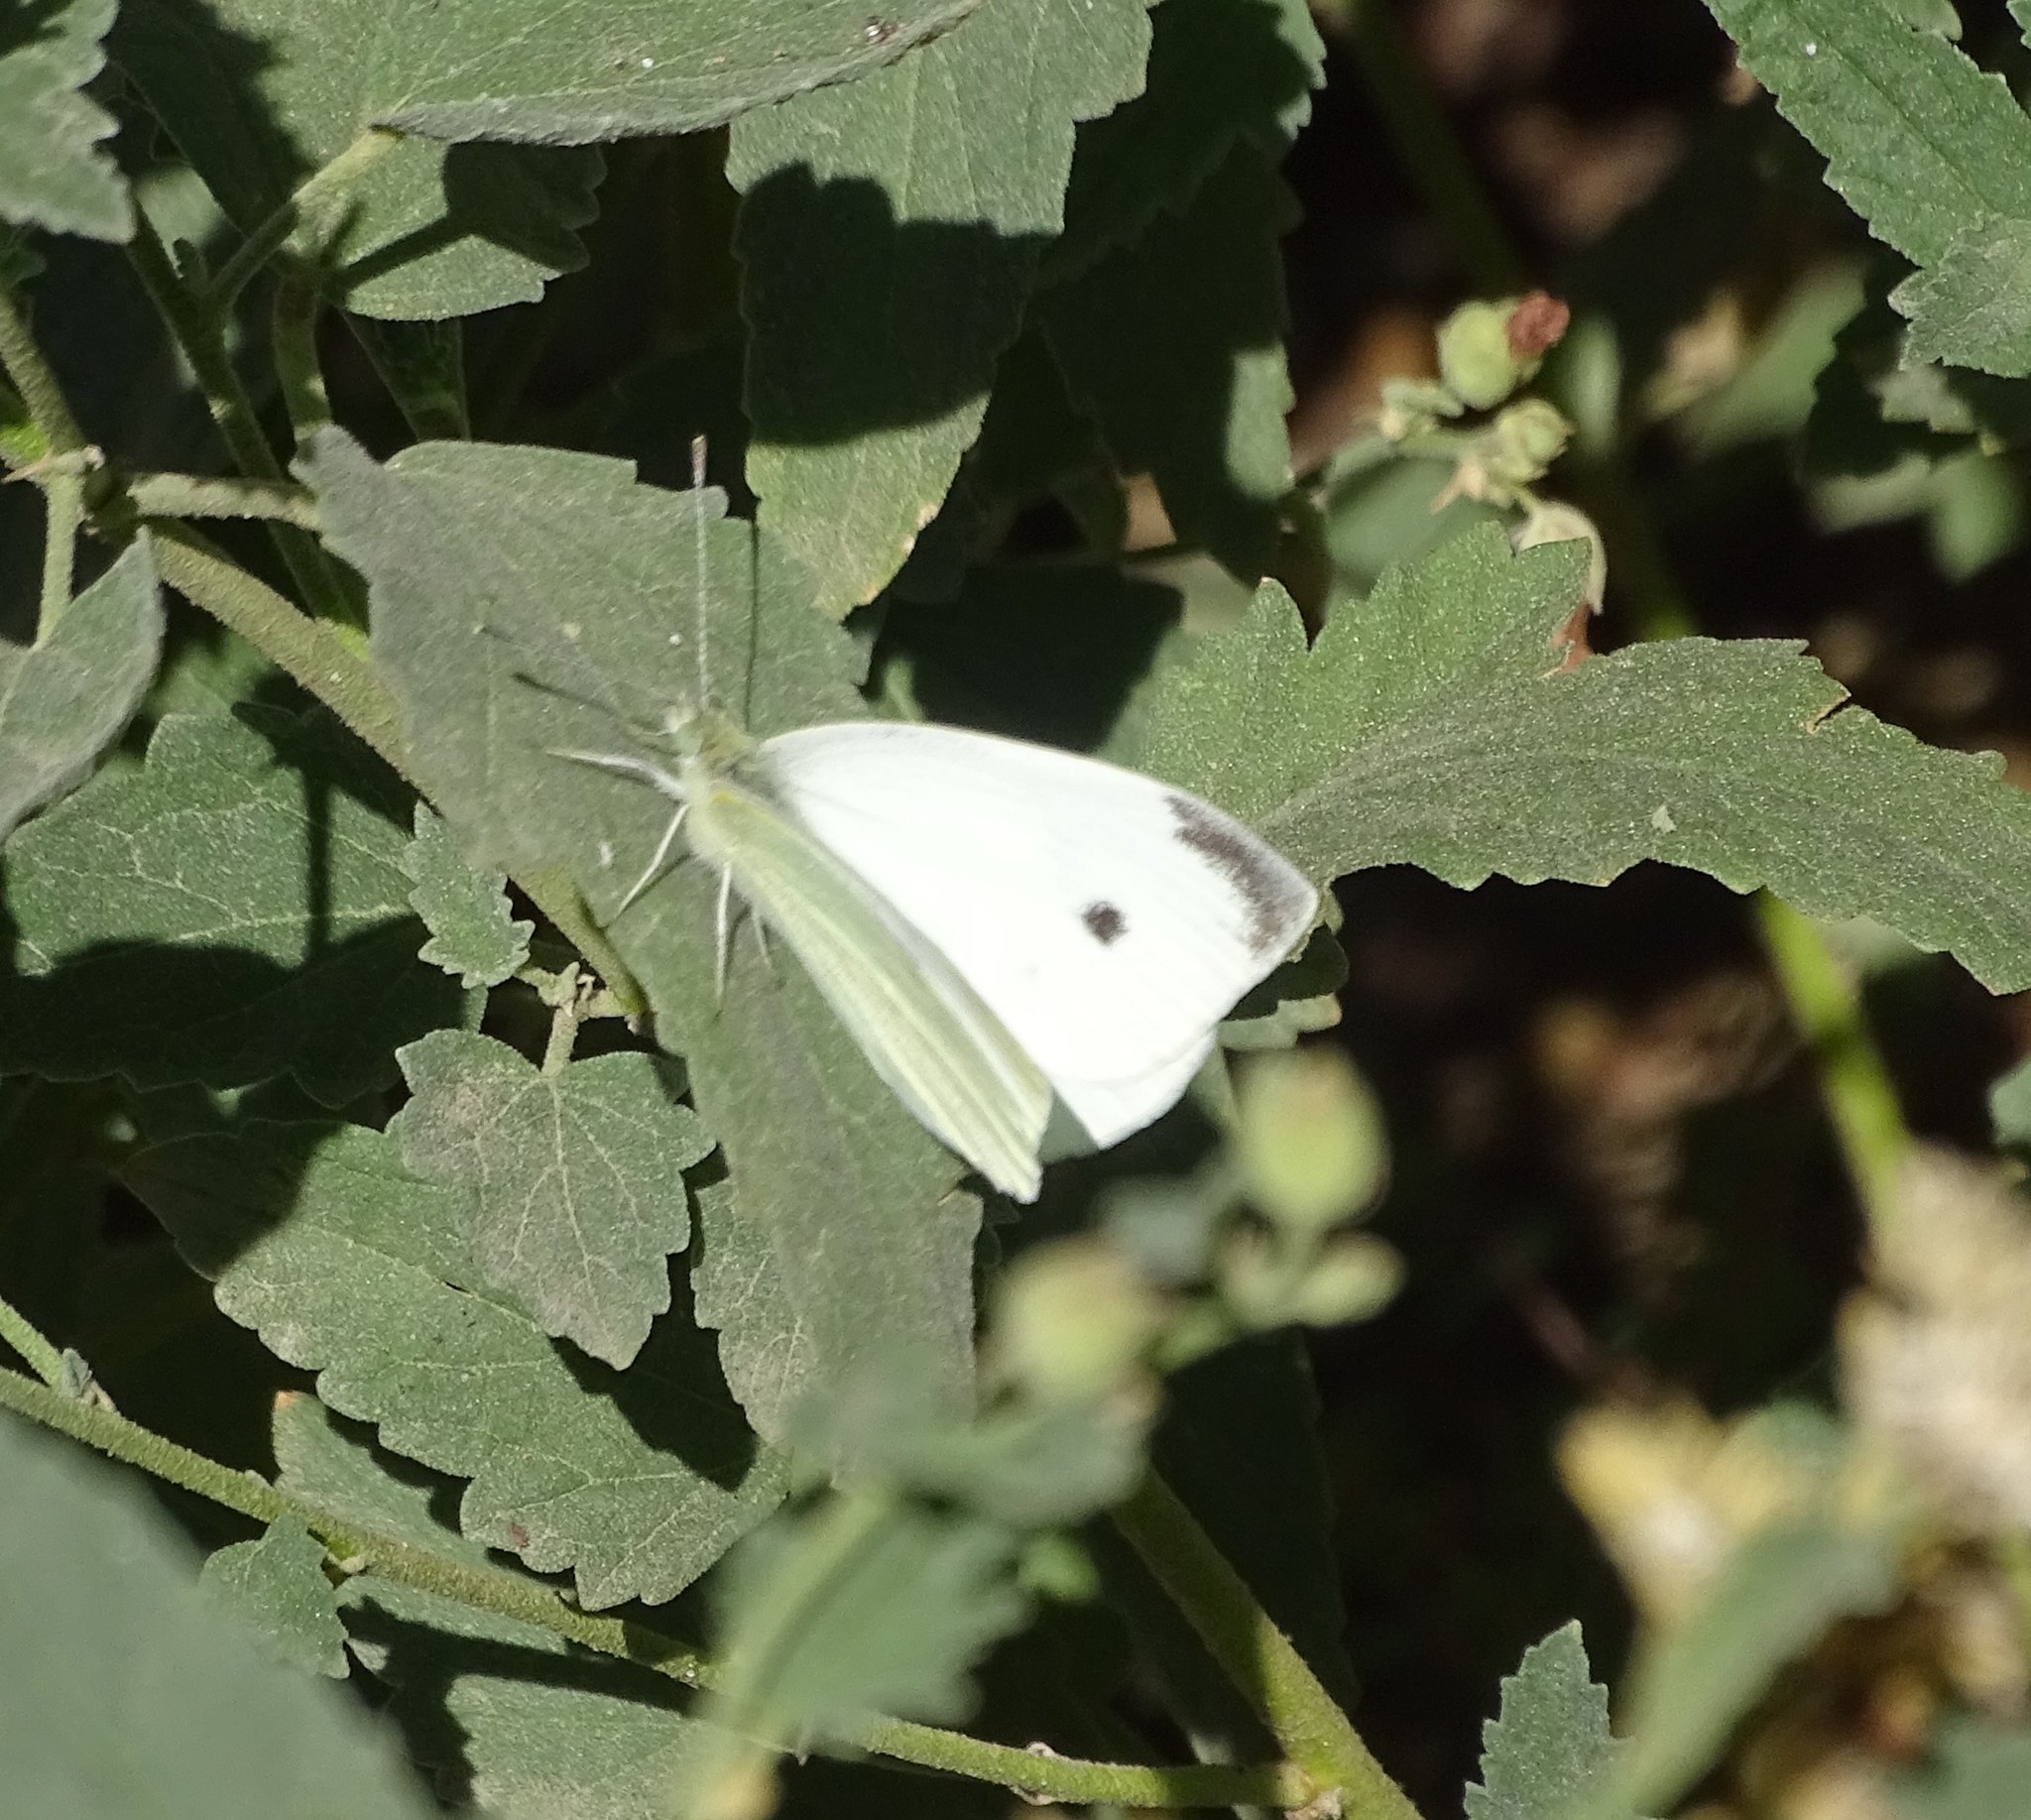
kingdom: Animalia
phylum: Arthropoda
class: Insecta
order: Lepidoptera
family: Pieridae
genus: Pieris
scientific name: Pieris rapae
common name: Small white
